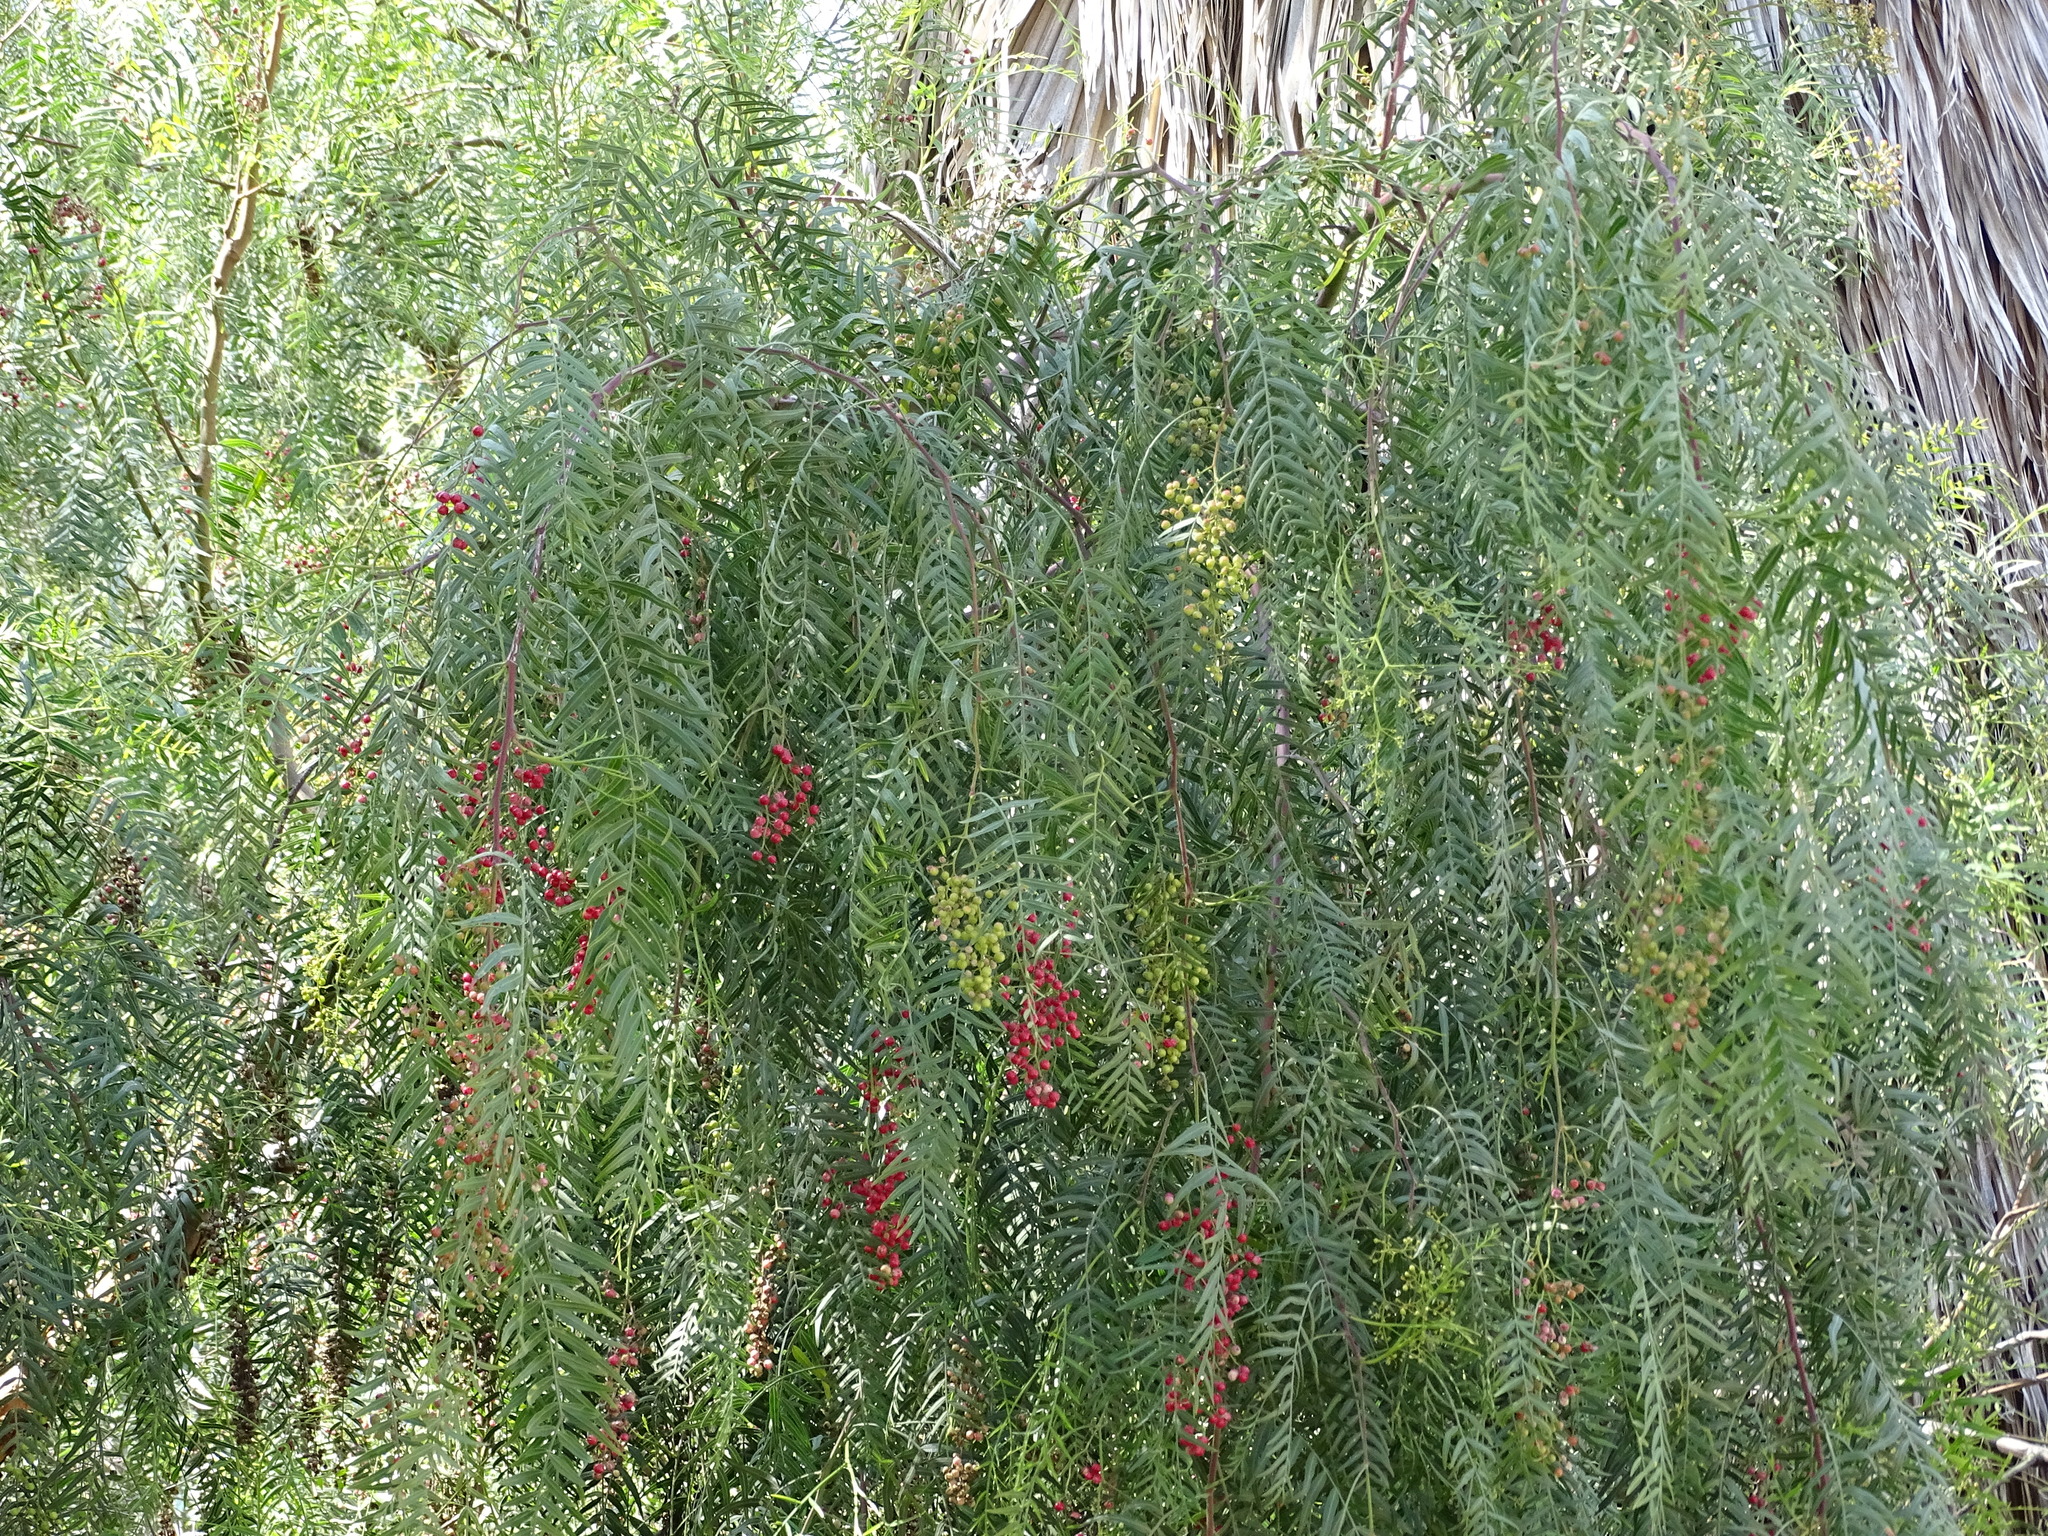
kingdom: Plantae
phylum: Tracheophyta
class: Magnoliopsida
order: Sapindales
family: Anacardiaceae
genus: Schinus
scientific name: Schinus molle
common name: Peruvian peppertree
